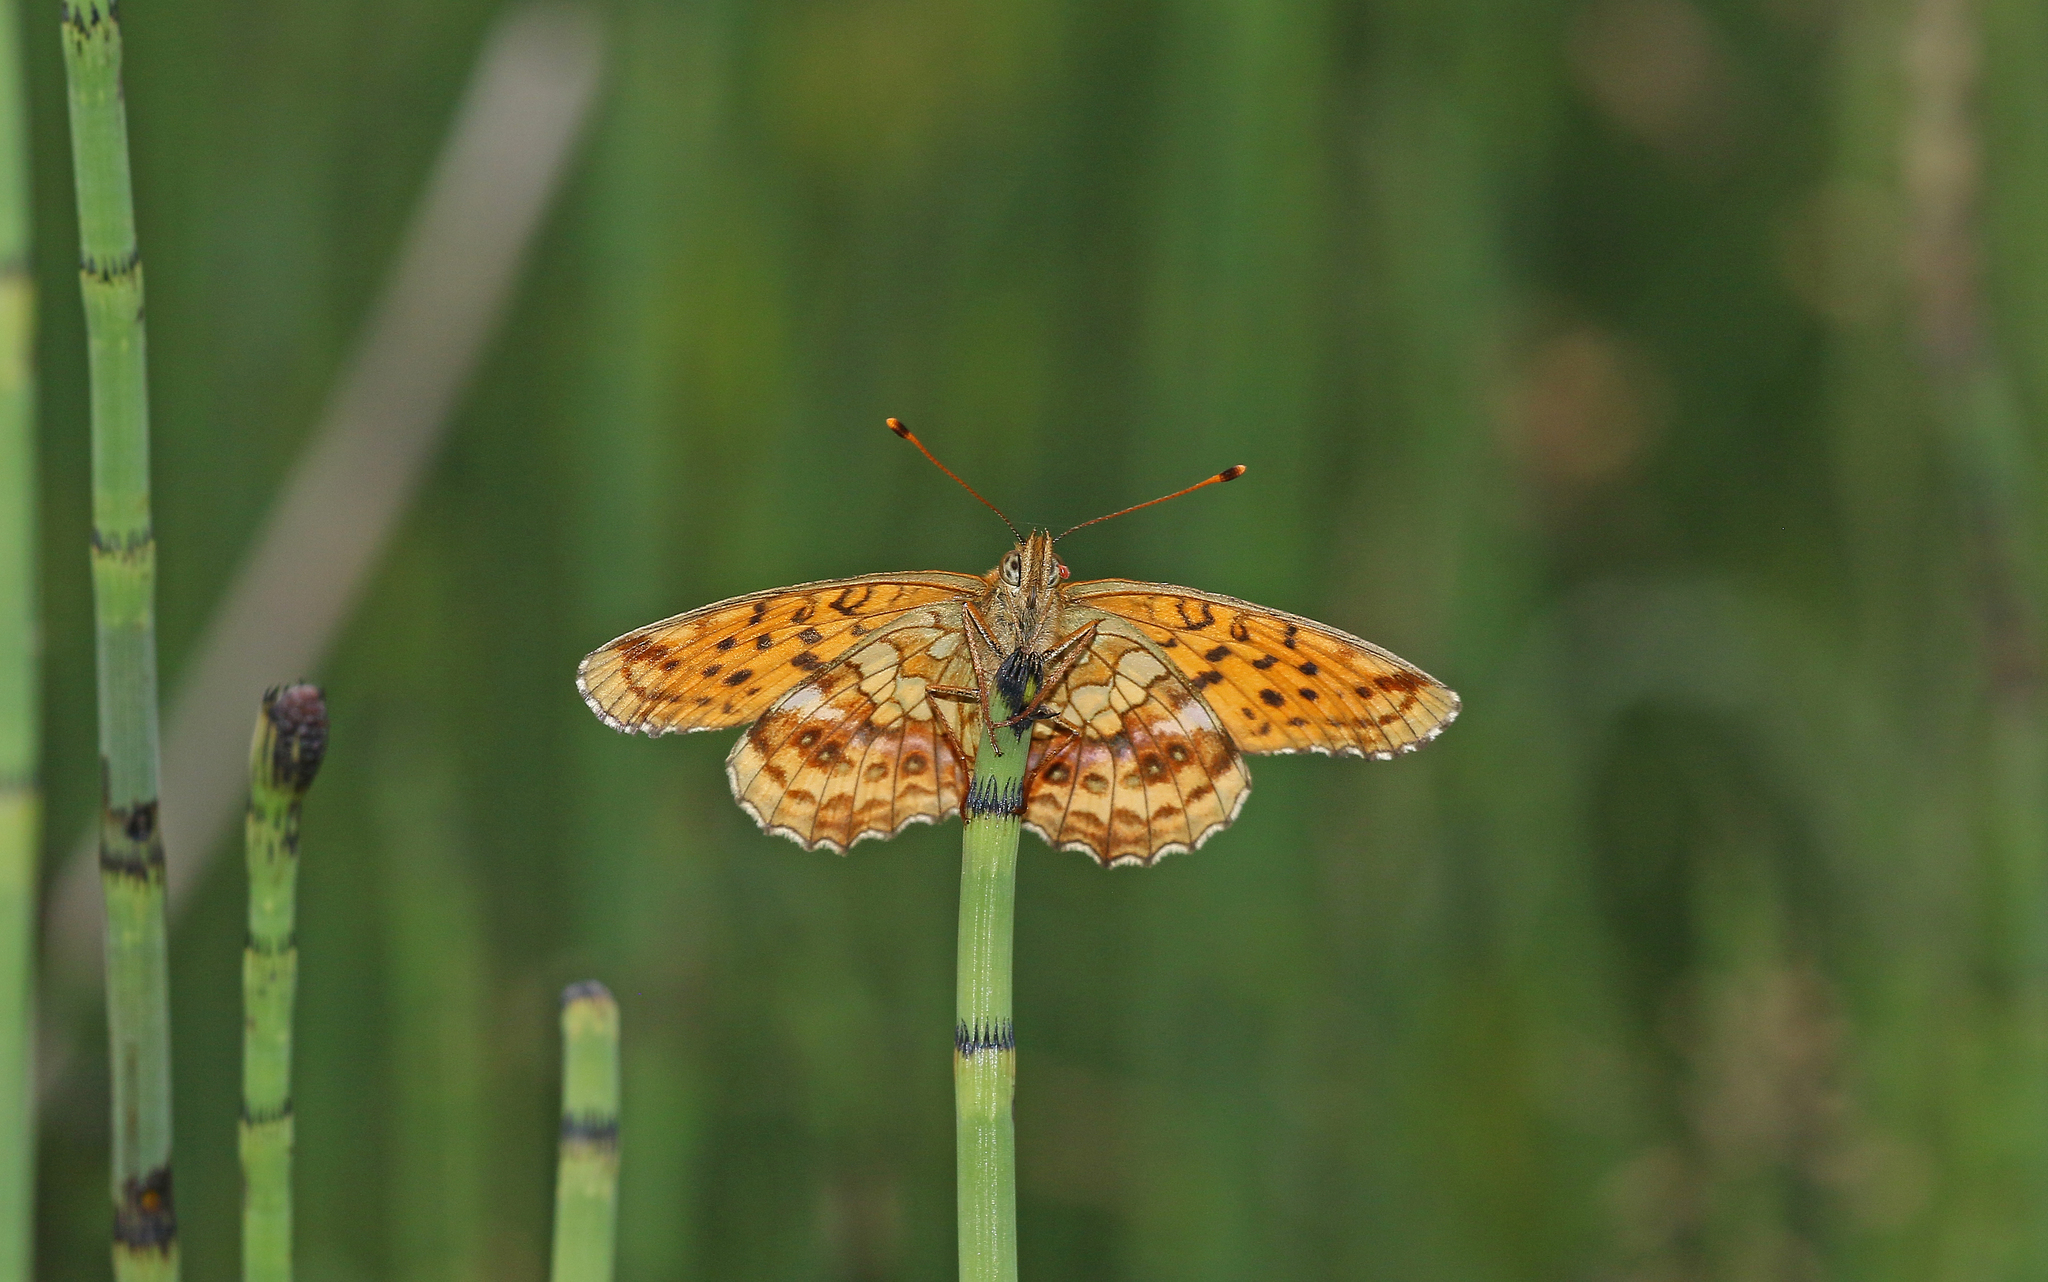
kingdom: Animalia
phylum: Arthropoda
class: Insecta
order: Lepidoptera
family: Nymphalidae
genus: Brenthis
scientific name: Brenthis ino
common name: Lesser marbled fritillary
